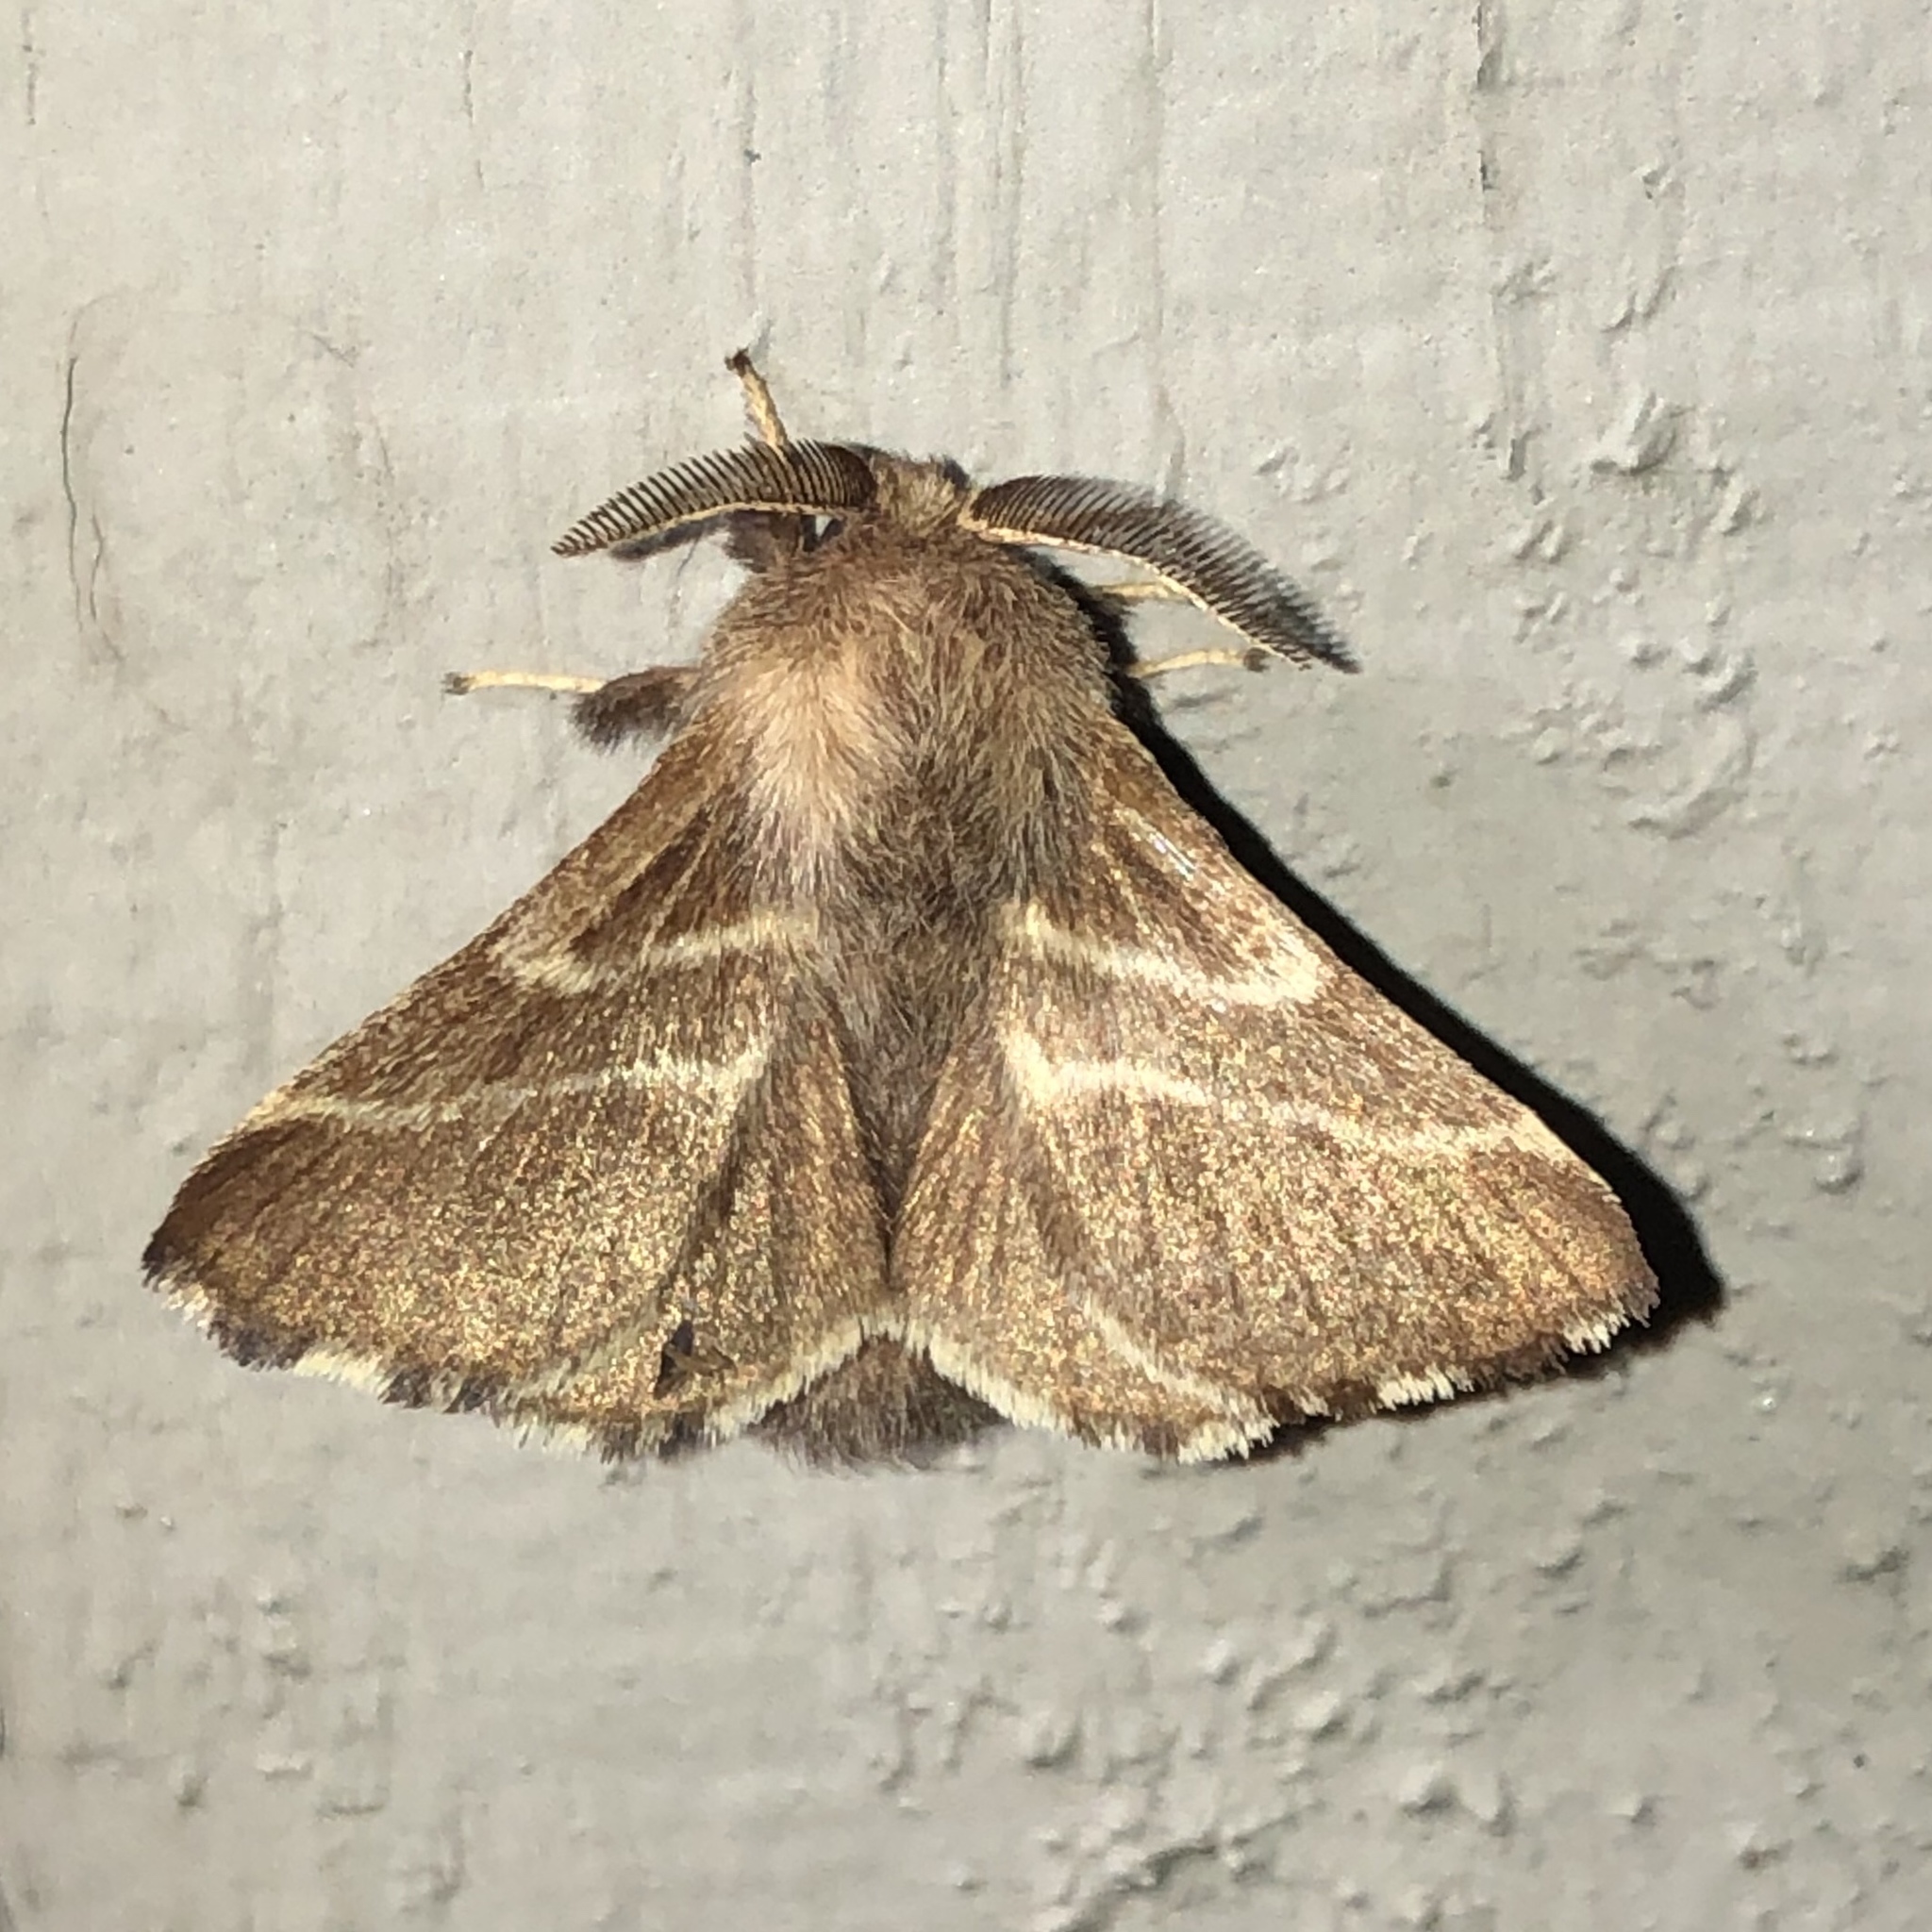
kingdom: Animalia
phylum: Arthropoda
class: Insecta
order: Lepidoptera
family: Lasiocampidae
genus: Malacosoma
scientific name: Malacosoma americana
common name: Eastern tent caterpillar moth
